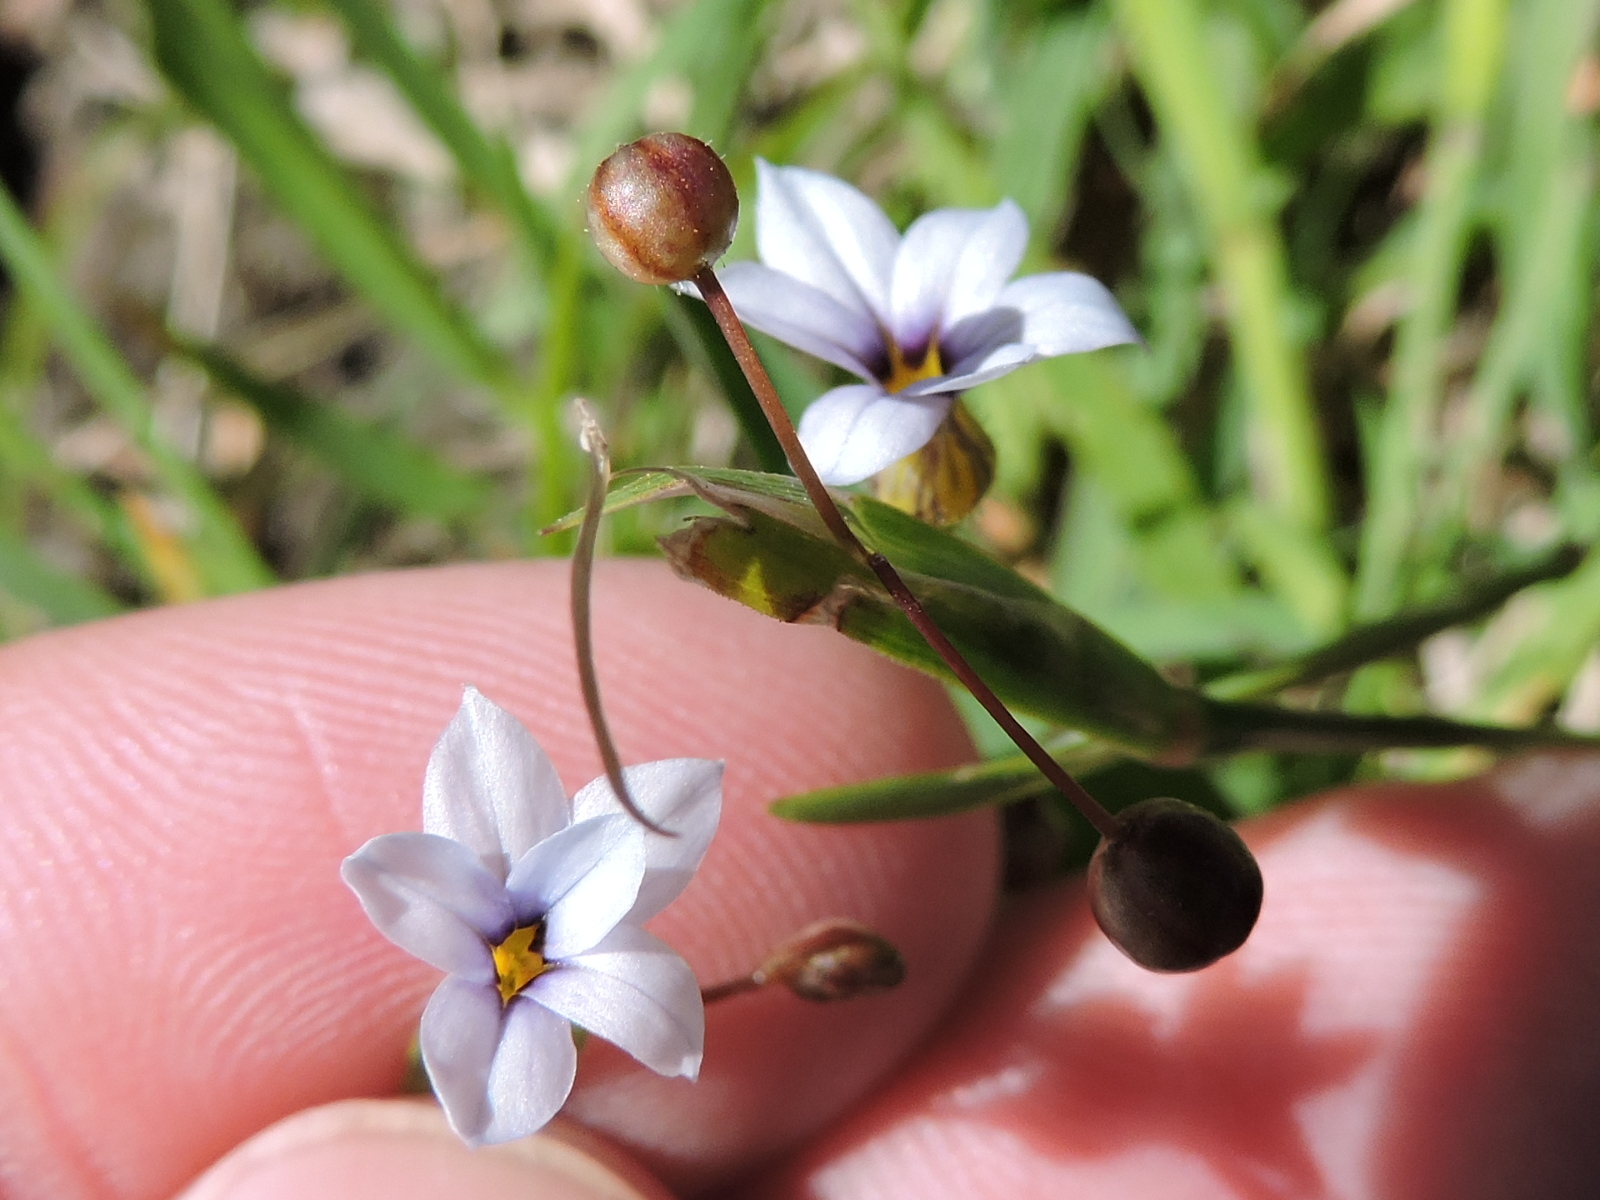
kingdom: Plantae
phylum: Tracheophyta
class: Liliopsida
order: Asparagales
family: Iridaceae
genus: Sisyrinchium
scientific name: Sisyrinchium micranthum
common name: Bermuda pigroot
